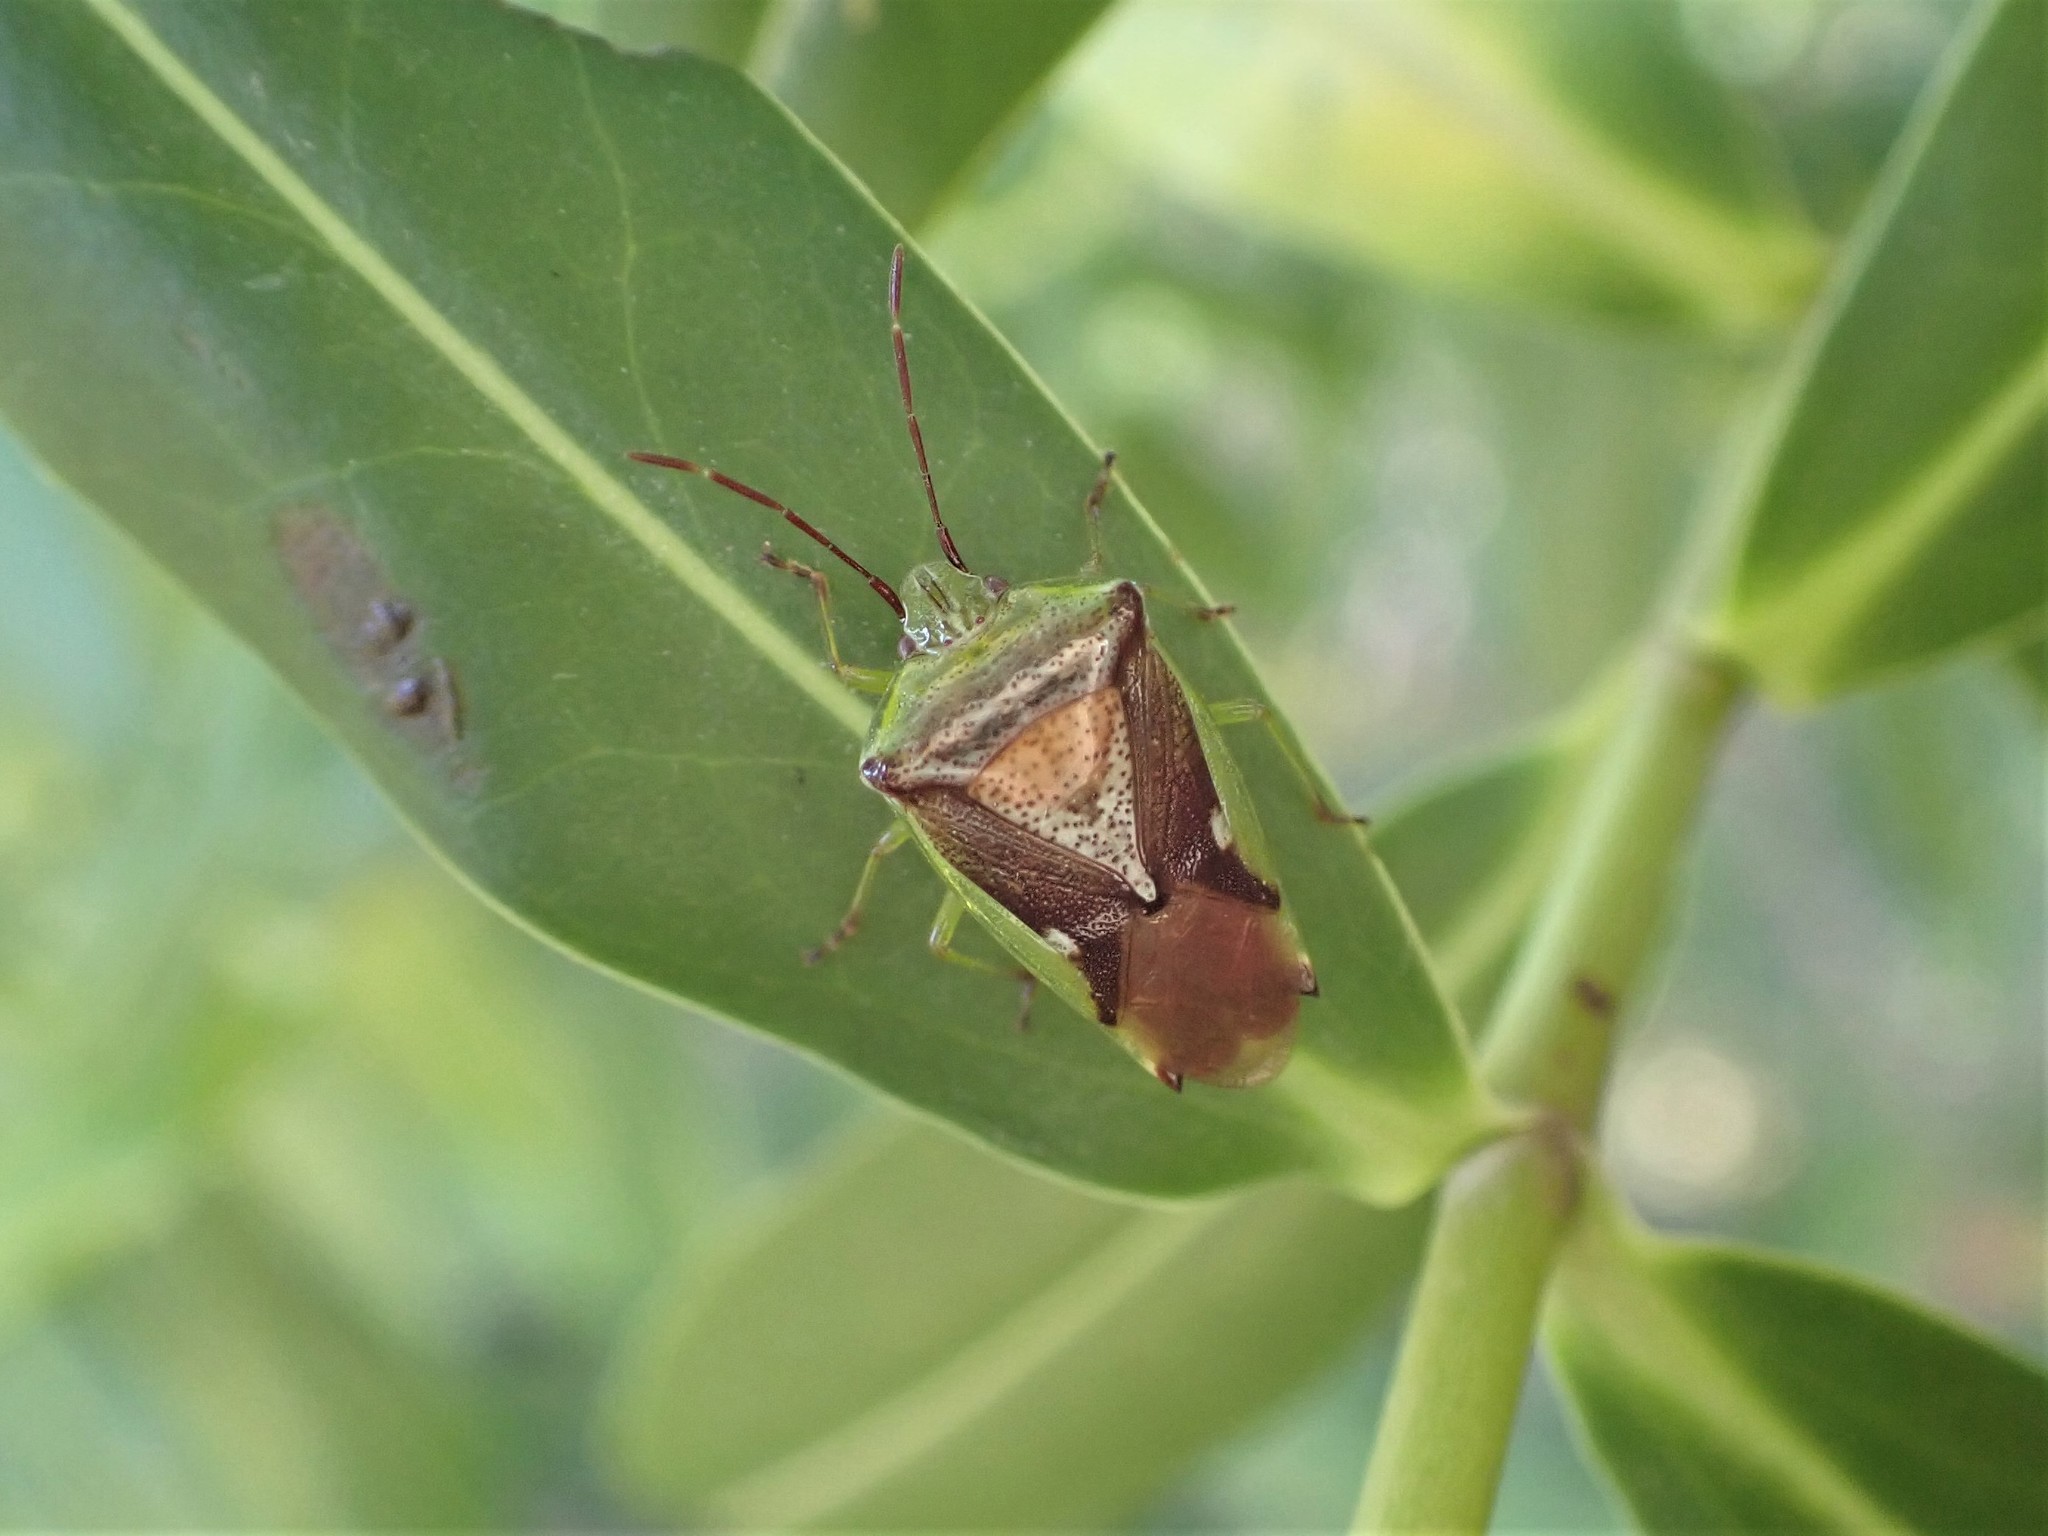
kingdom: Animalia
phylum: Arthropoda
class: Insecta
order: Hemiptera
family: Acanthosomatidae
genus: Oncacontias
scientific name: Oncacontias vittatus
